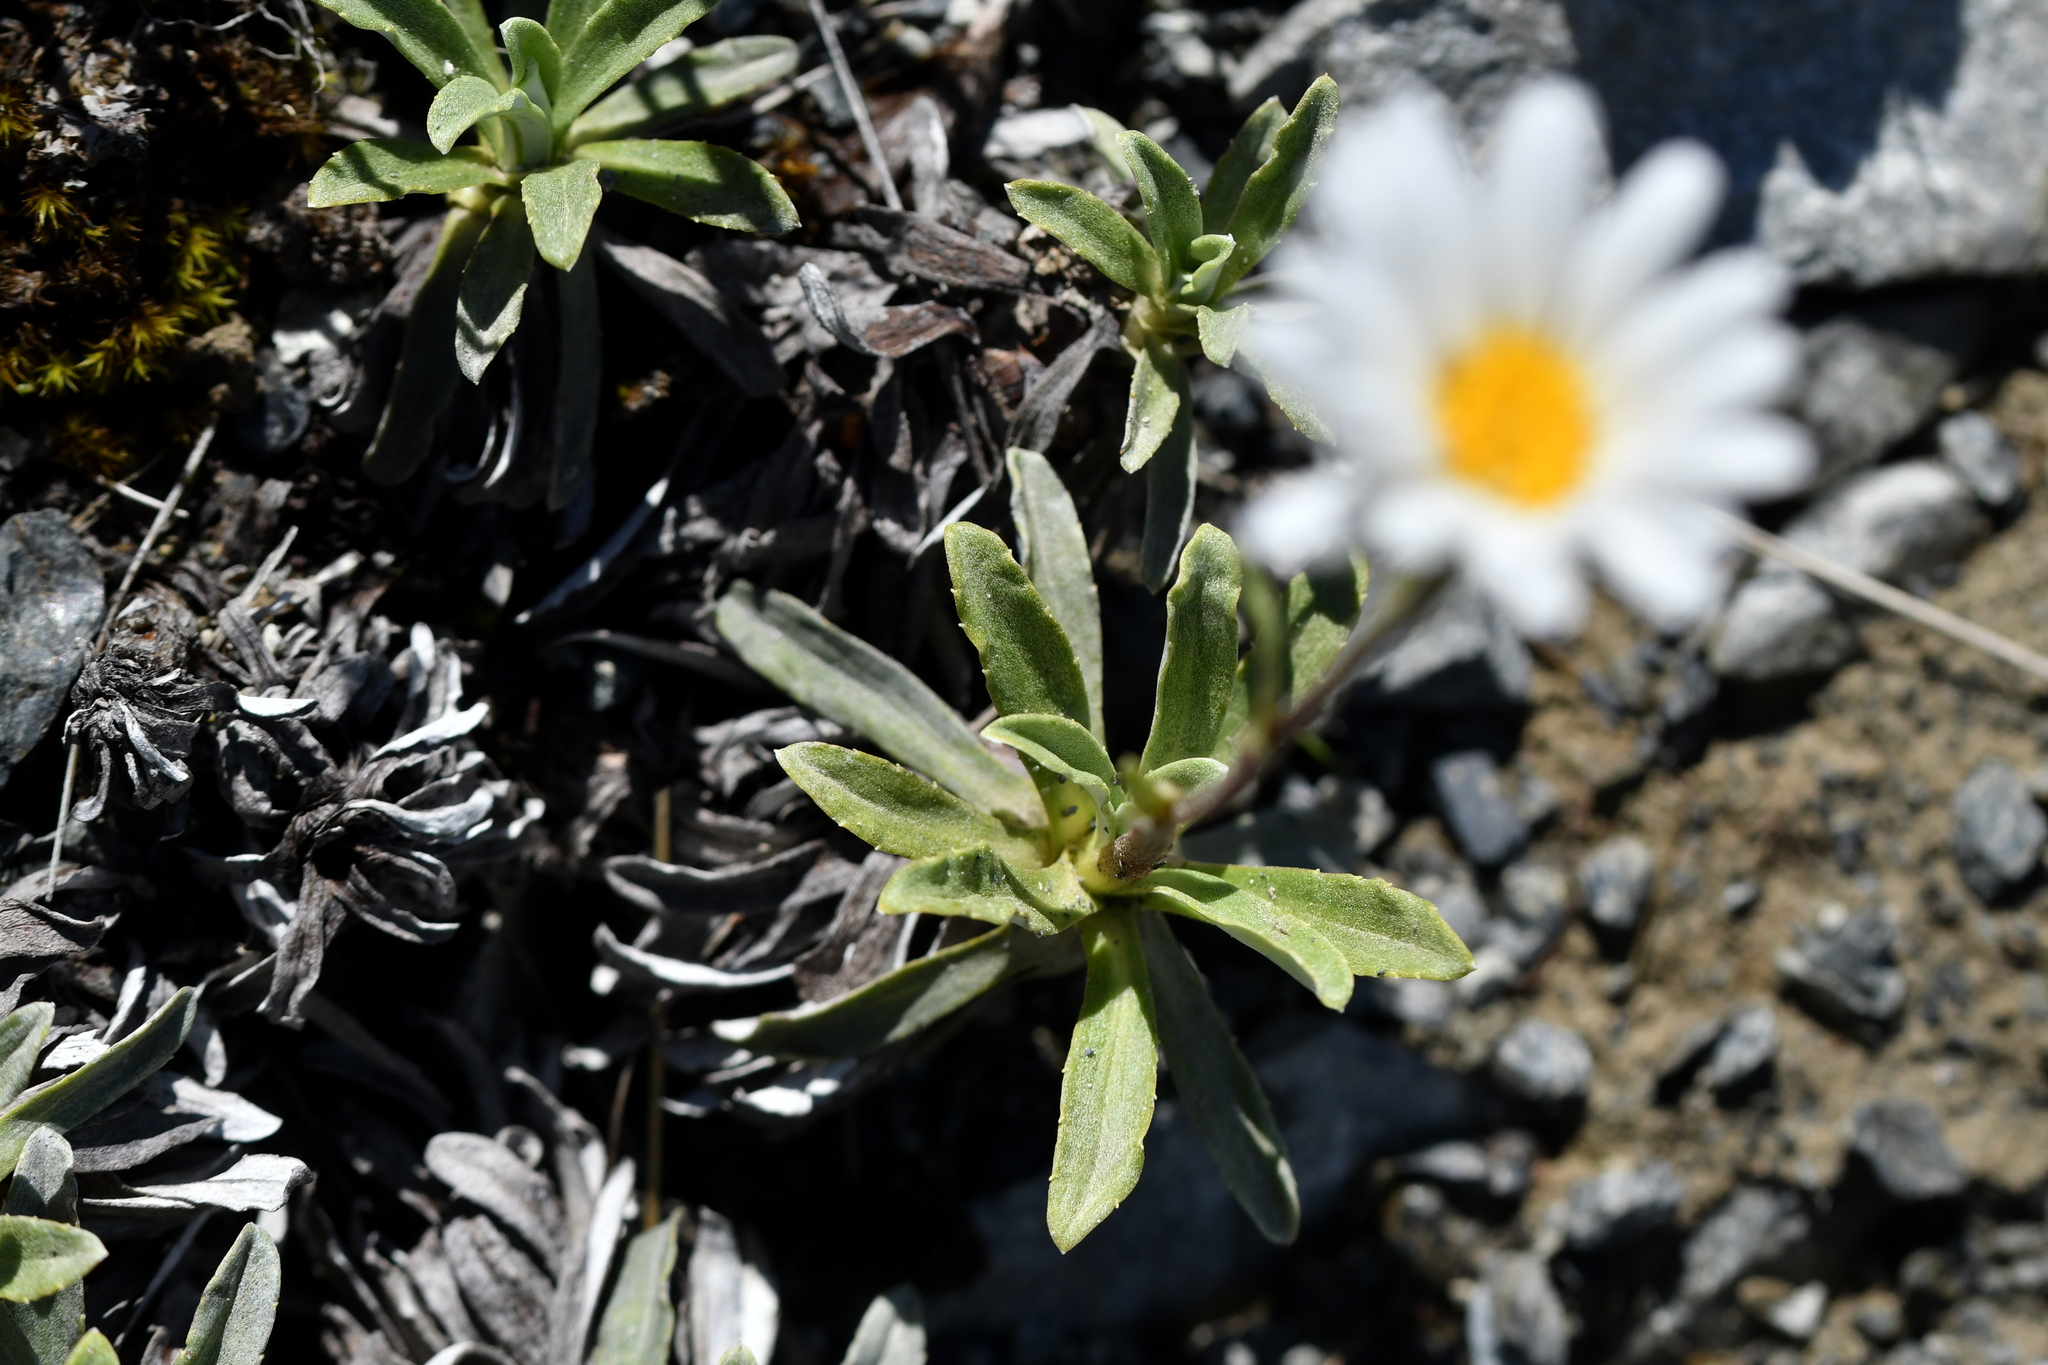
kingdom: Plantae
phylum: Tracheophyta
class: Magnoliopsida
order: Asterales
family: Asteraceae
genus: Celmisia
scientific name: Celmisia angustifolia
